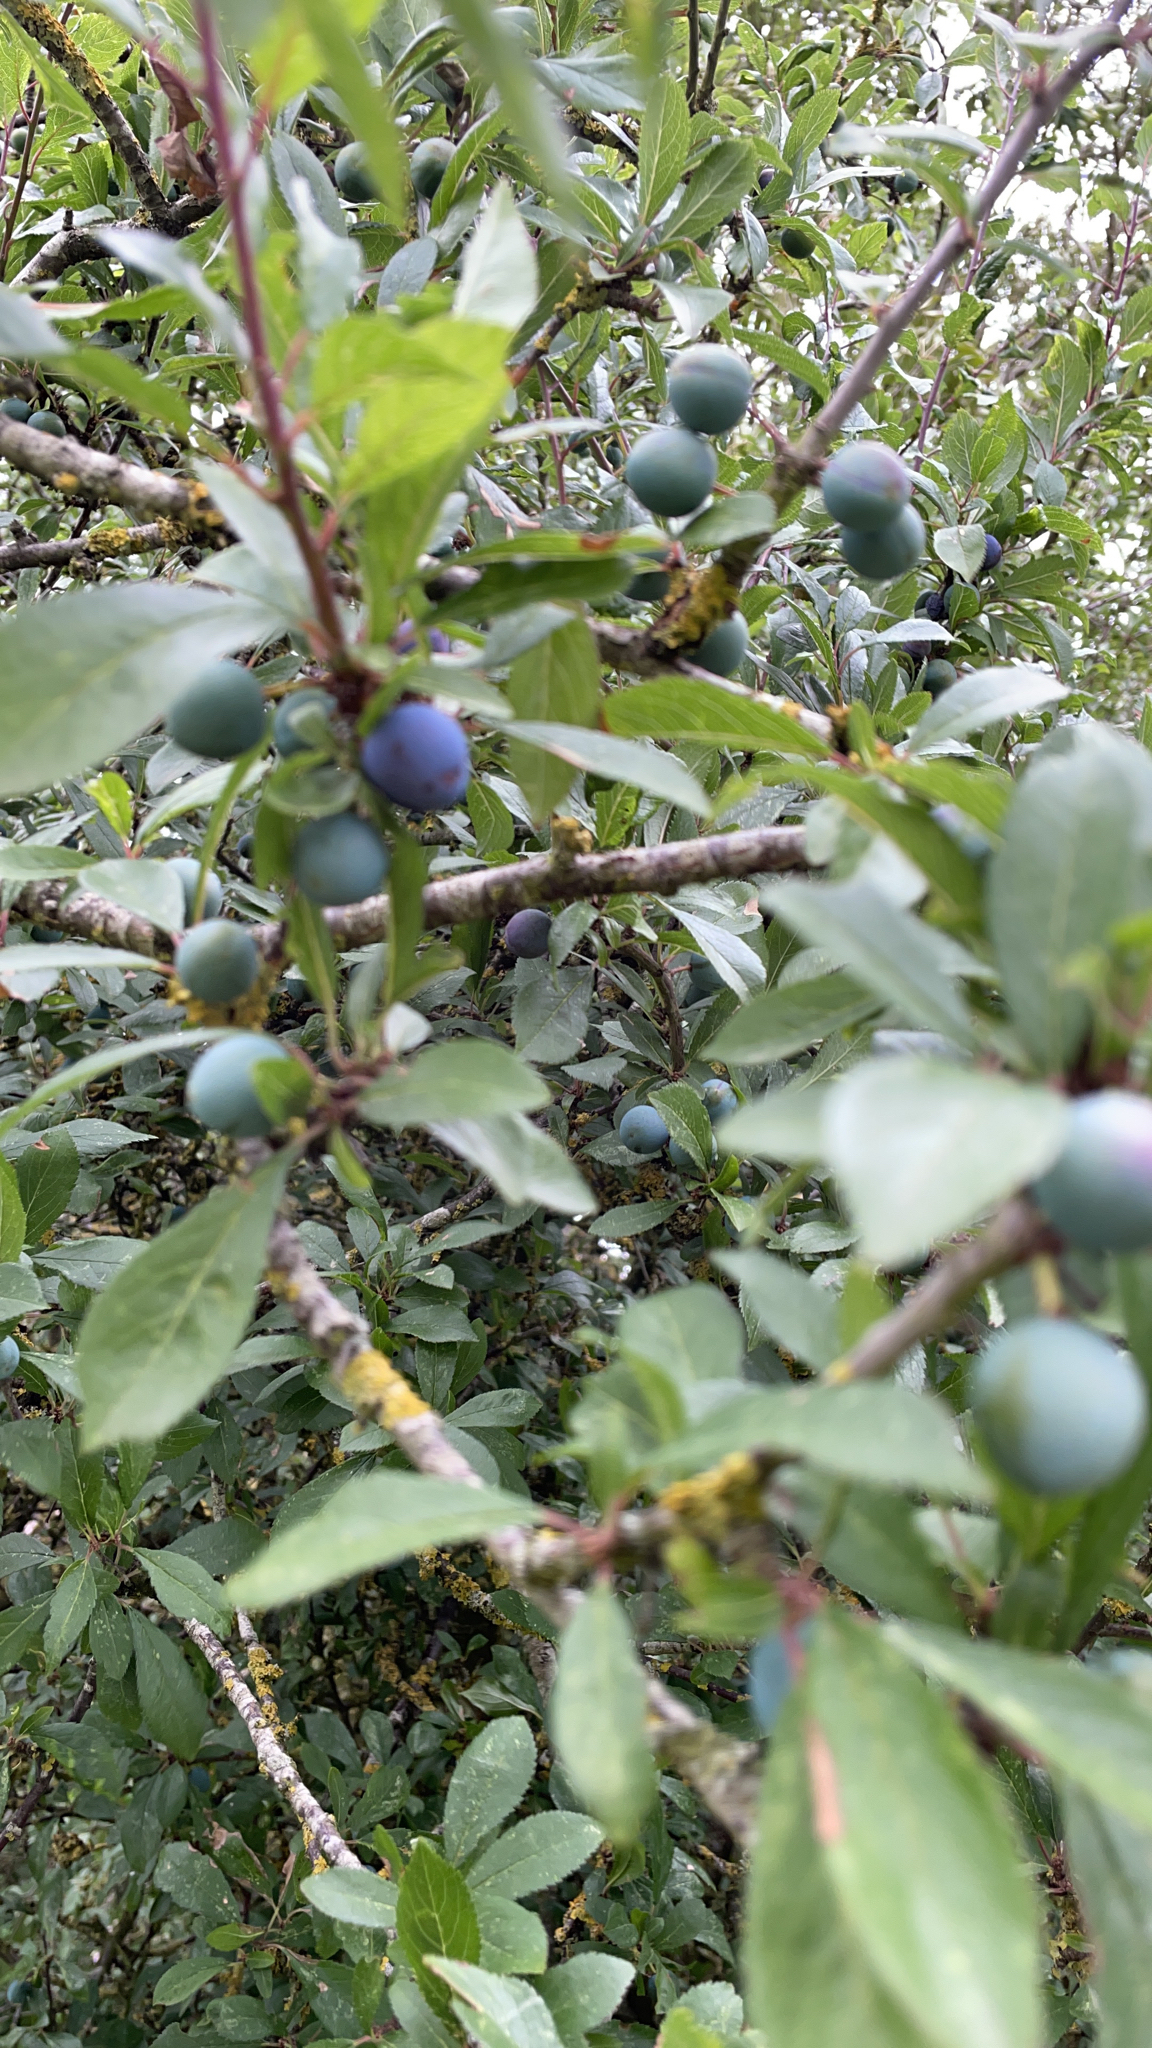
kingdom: Plantae
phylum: Tracheophyta
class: Magnoliopsida
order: Rosales
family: Rosaceae
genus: Prunus
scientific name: Prunus spinosa
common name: Blackthorn
